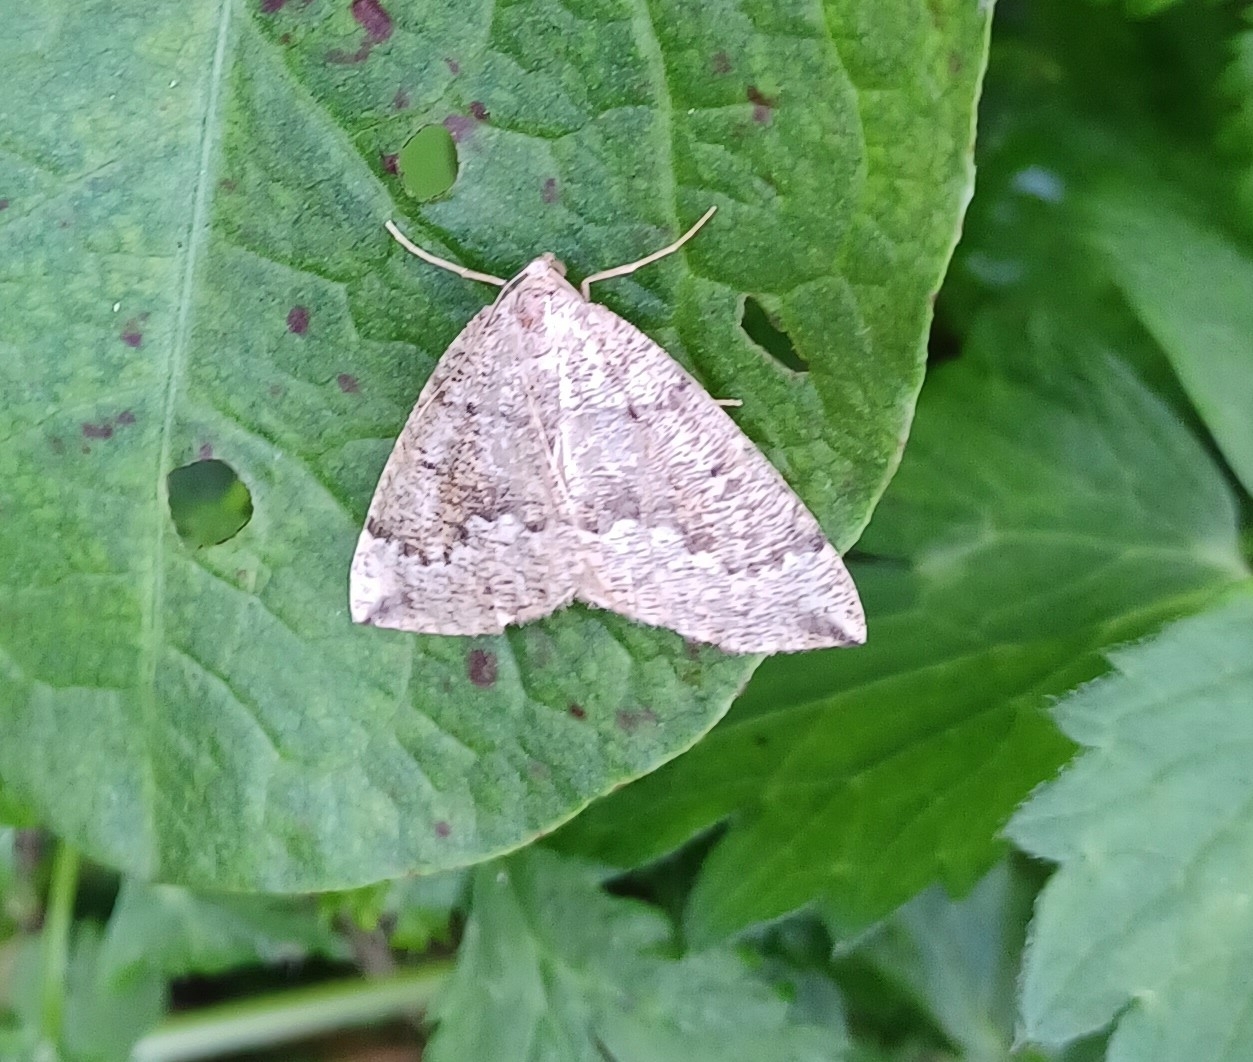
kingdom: Animalia
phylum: Arthropoda
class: Insecta
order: Lepidoptera
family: Geometridae
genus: Pungeleria
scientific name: Pungeleria capreolaria
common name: Banded pine carpet
